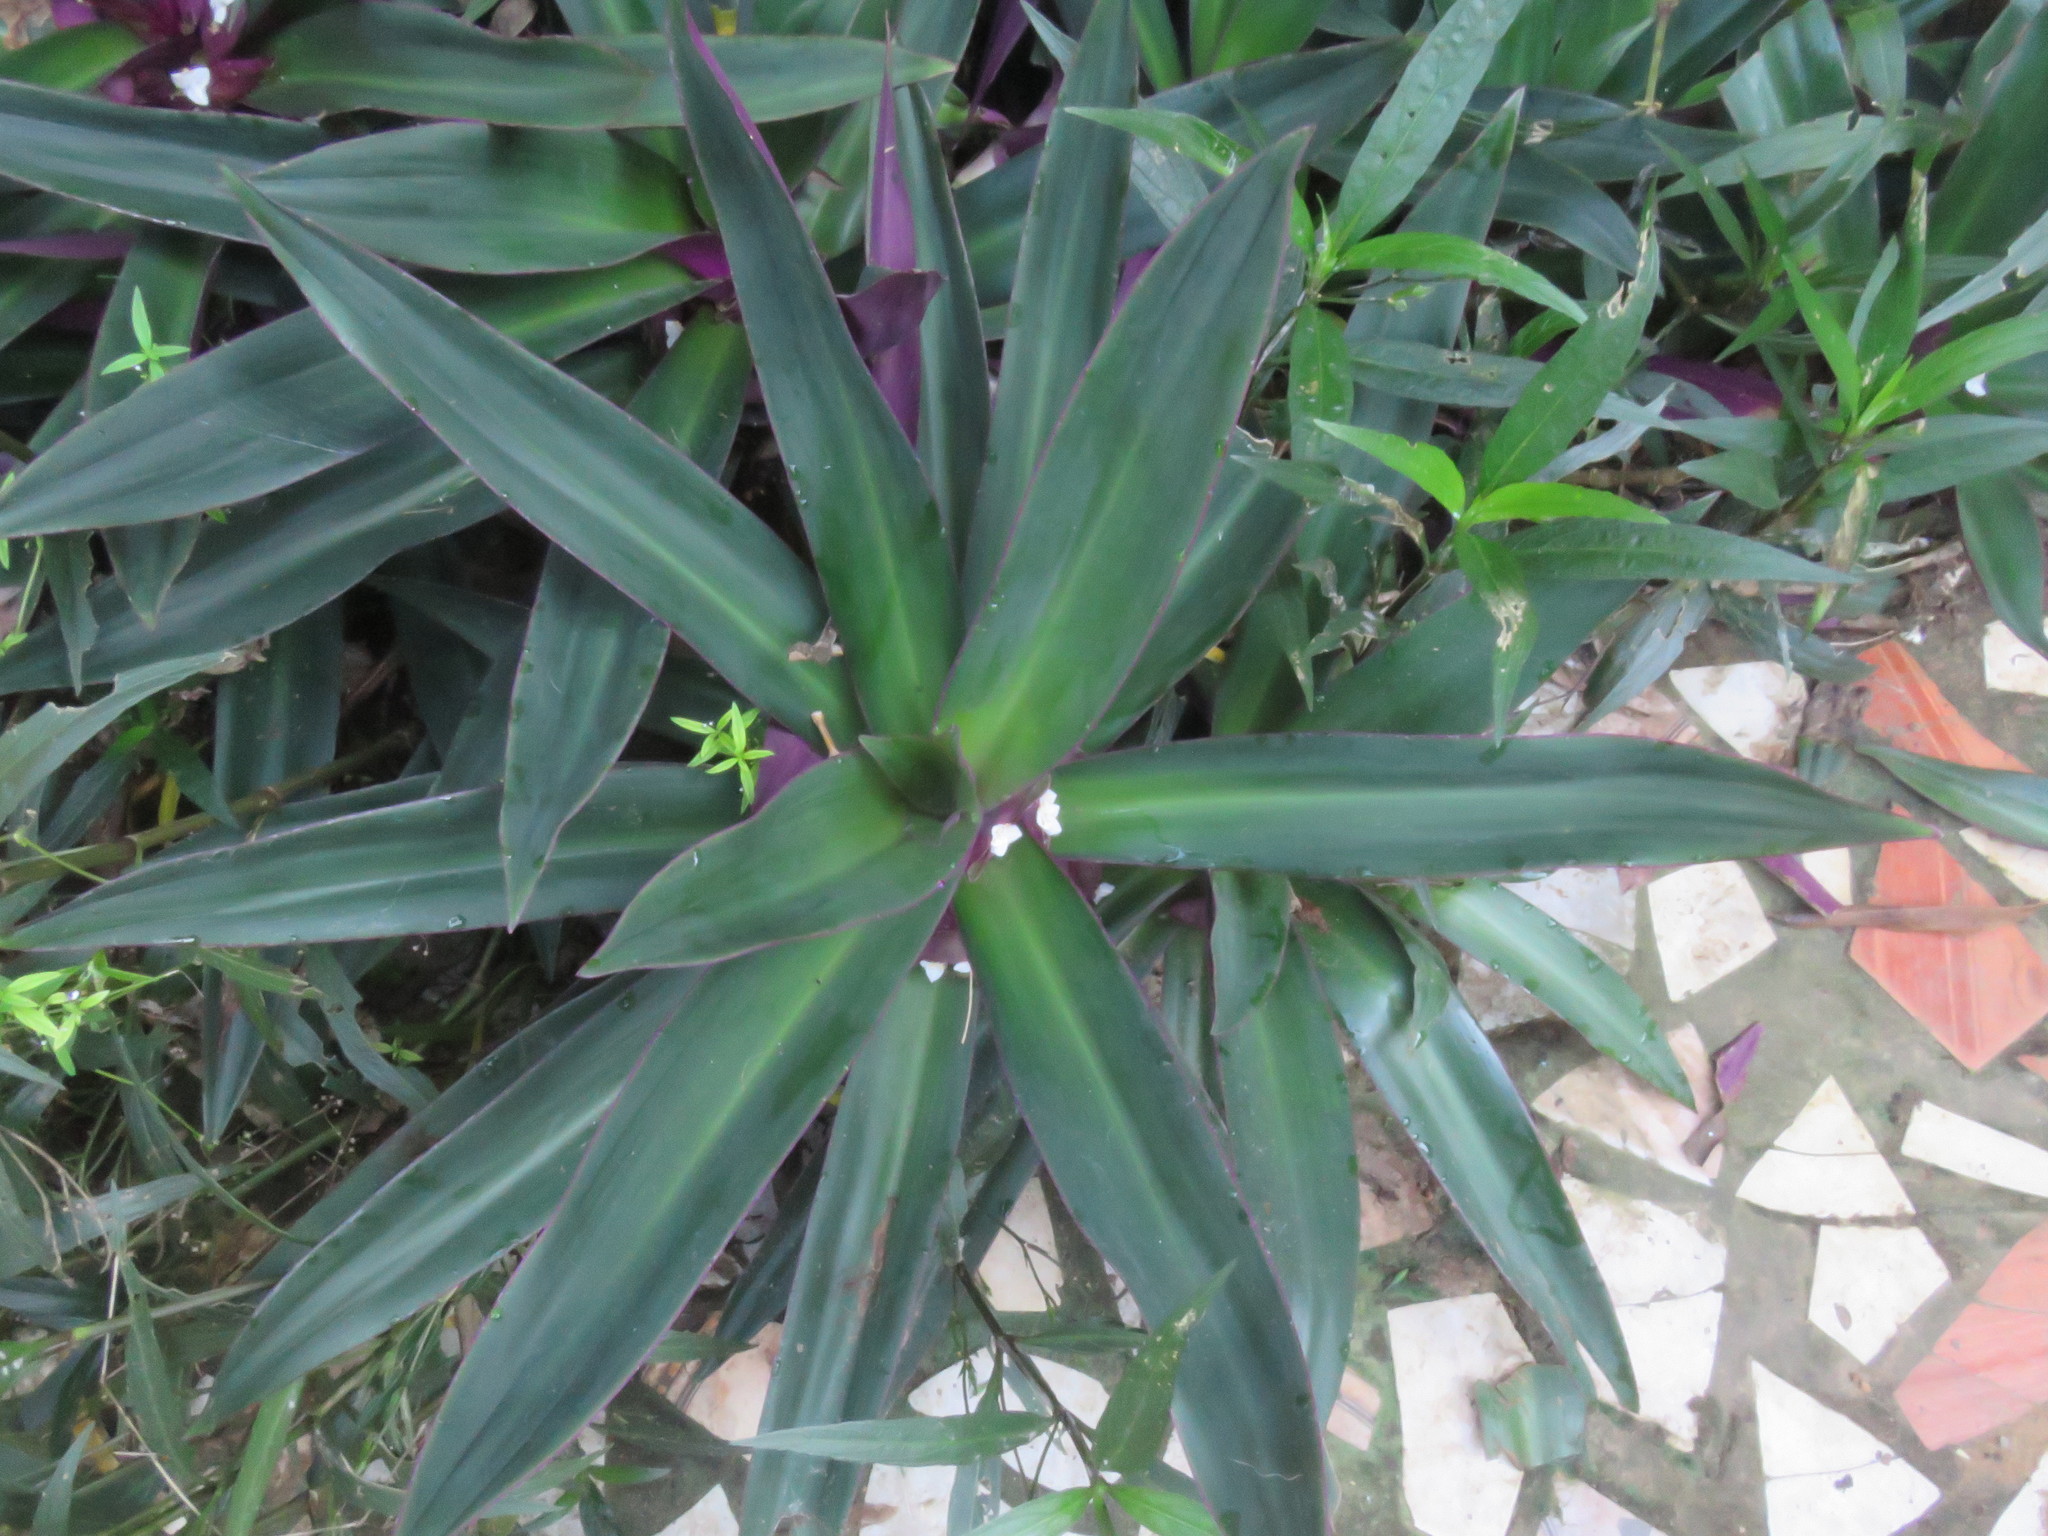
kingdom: Plantae
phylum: Tracheophyta
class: Liliopsida
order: Commelinales
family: Commelinaceae
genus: Tradescantia
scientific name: Tradescantia spathacea
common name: Boatlily
